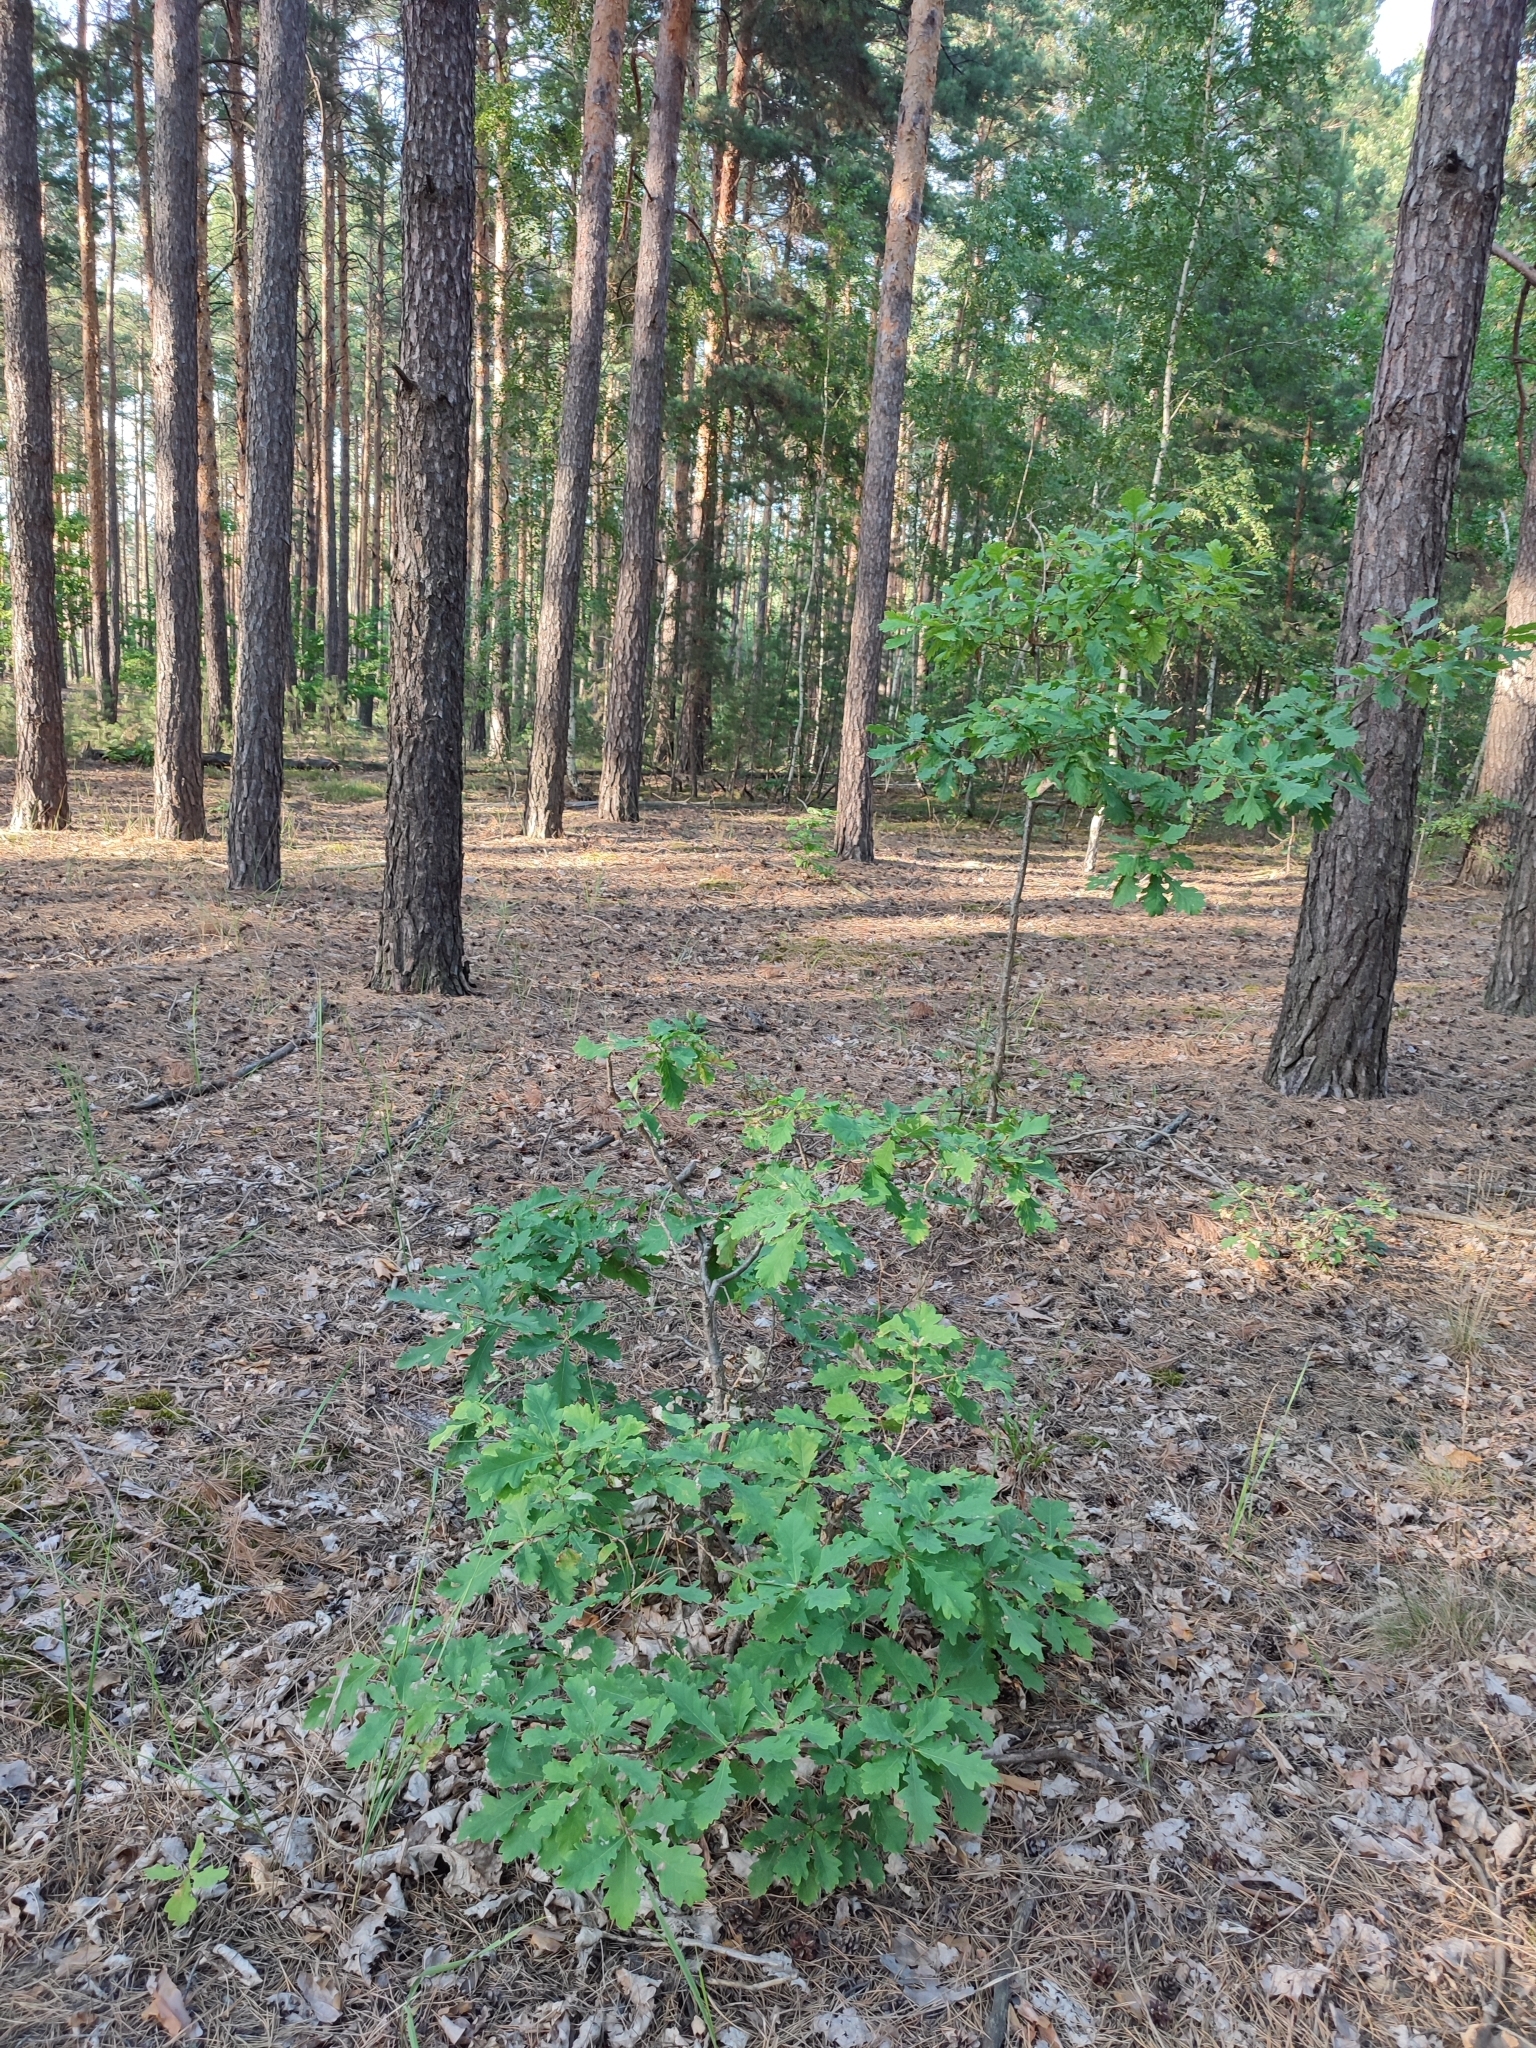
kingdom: Plantae
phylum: Tracheophyta
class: Magnoliopsida
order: Fagales
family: Fagaceae
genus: Quercus
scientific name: Quercus robur
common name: Pedunculate oak
